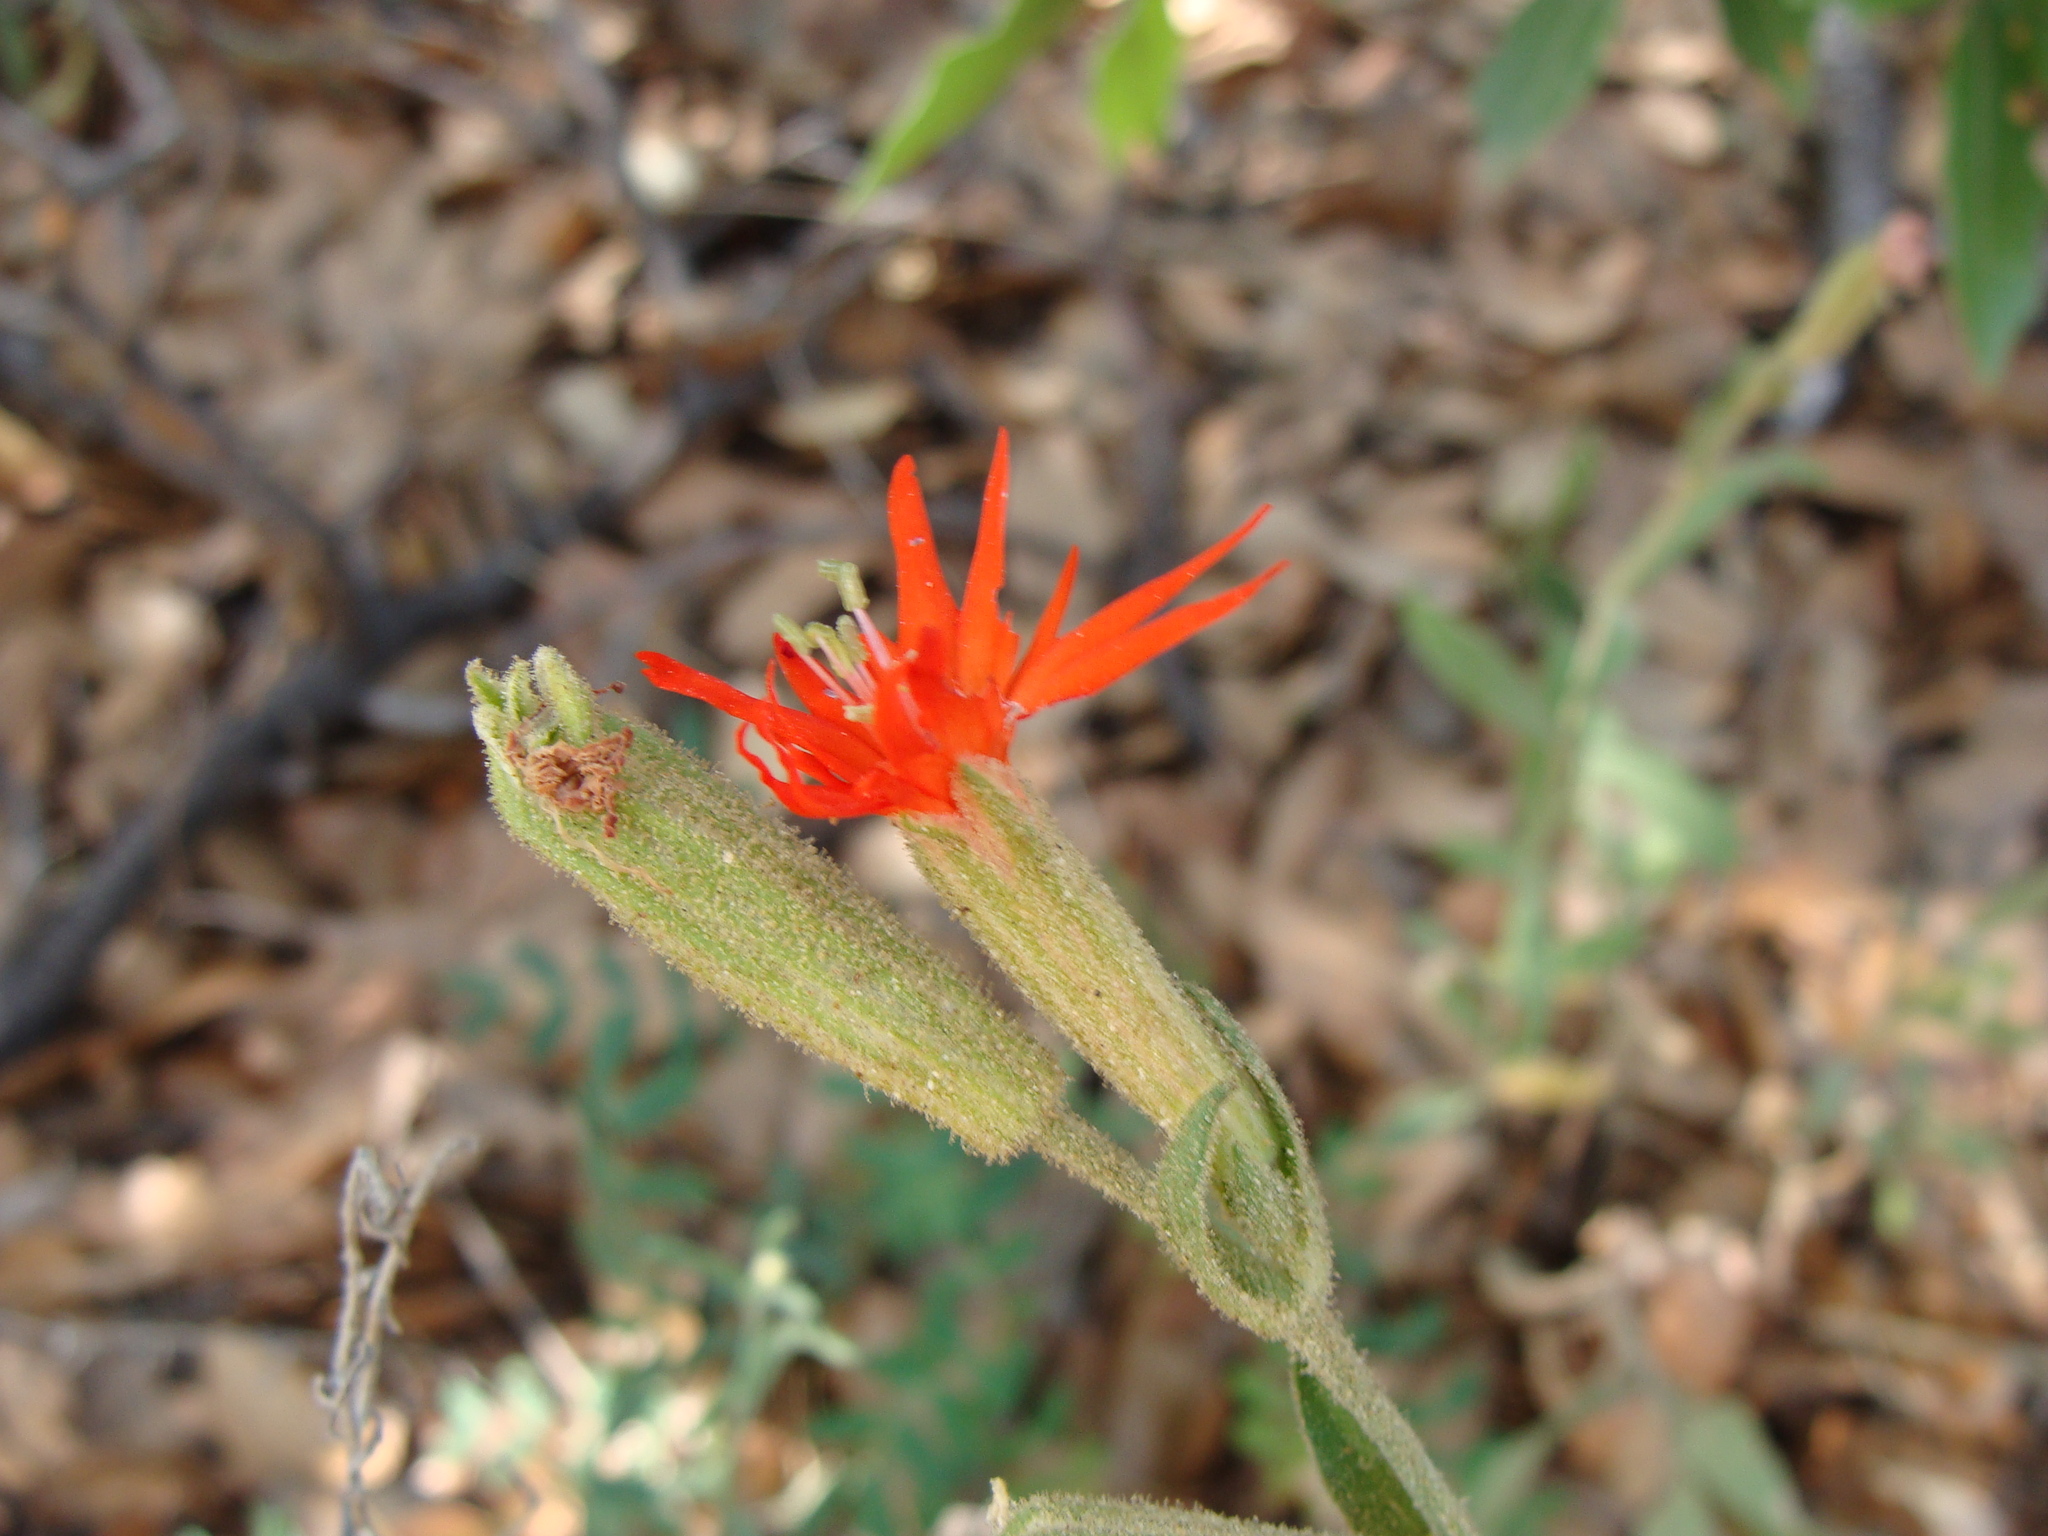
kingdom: Plantae
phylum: Tracheophyta
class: Magnoliopsida
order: Caryophyllales
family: Caryophyllaceae
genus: Silene
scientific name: Silene laciniata
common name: Indian-pink
